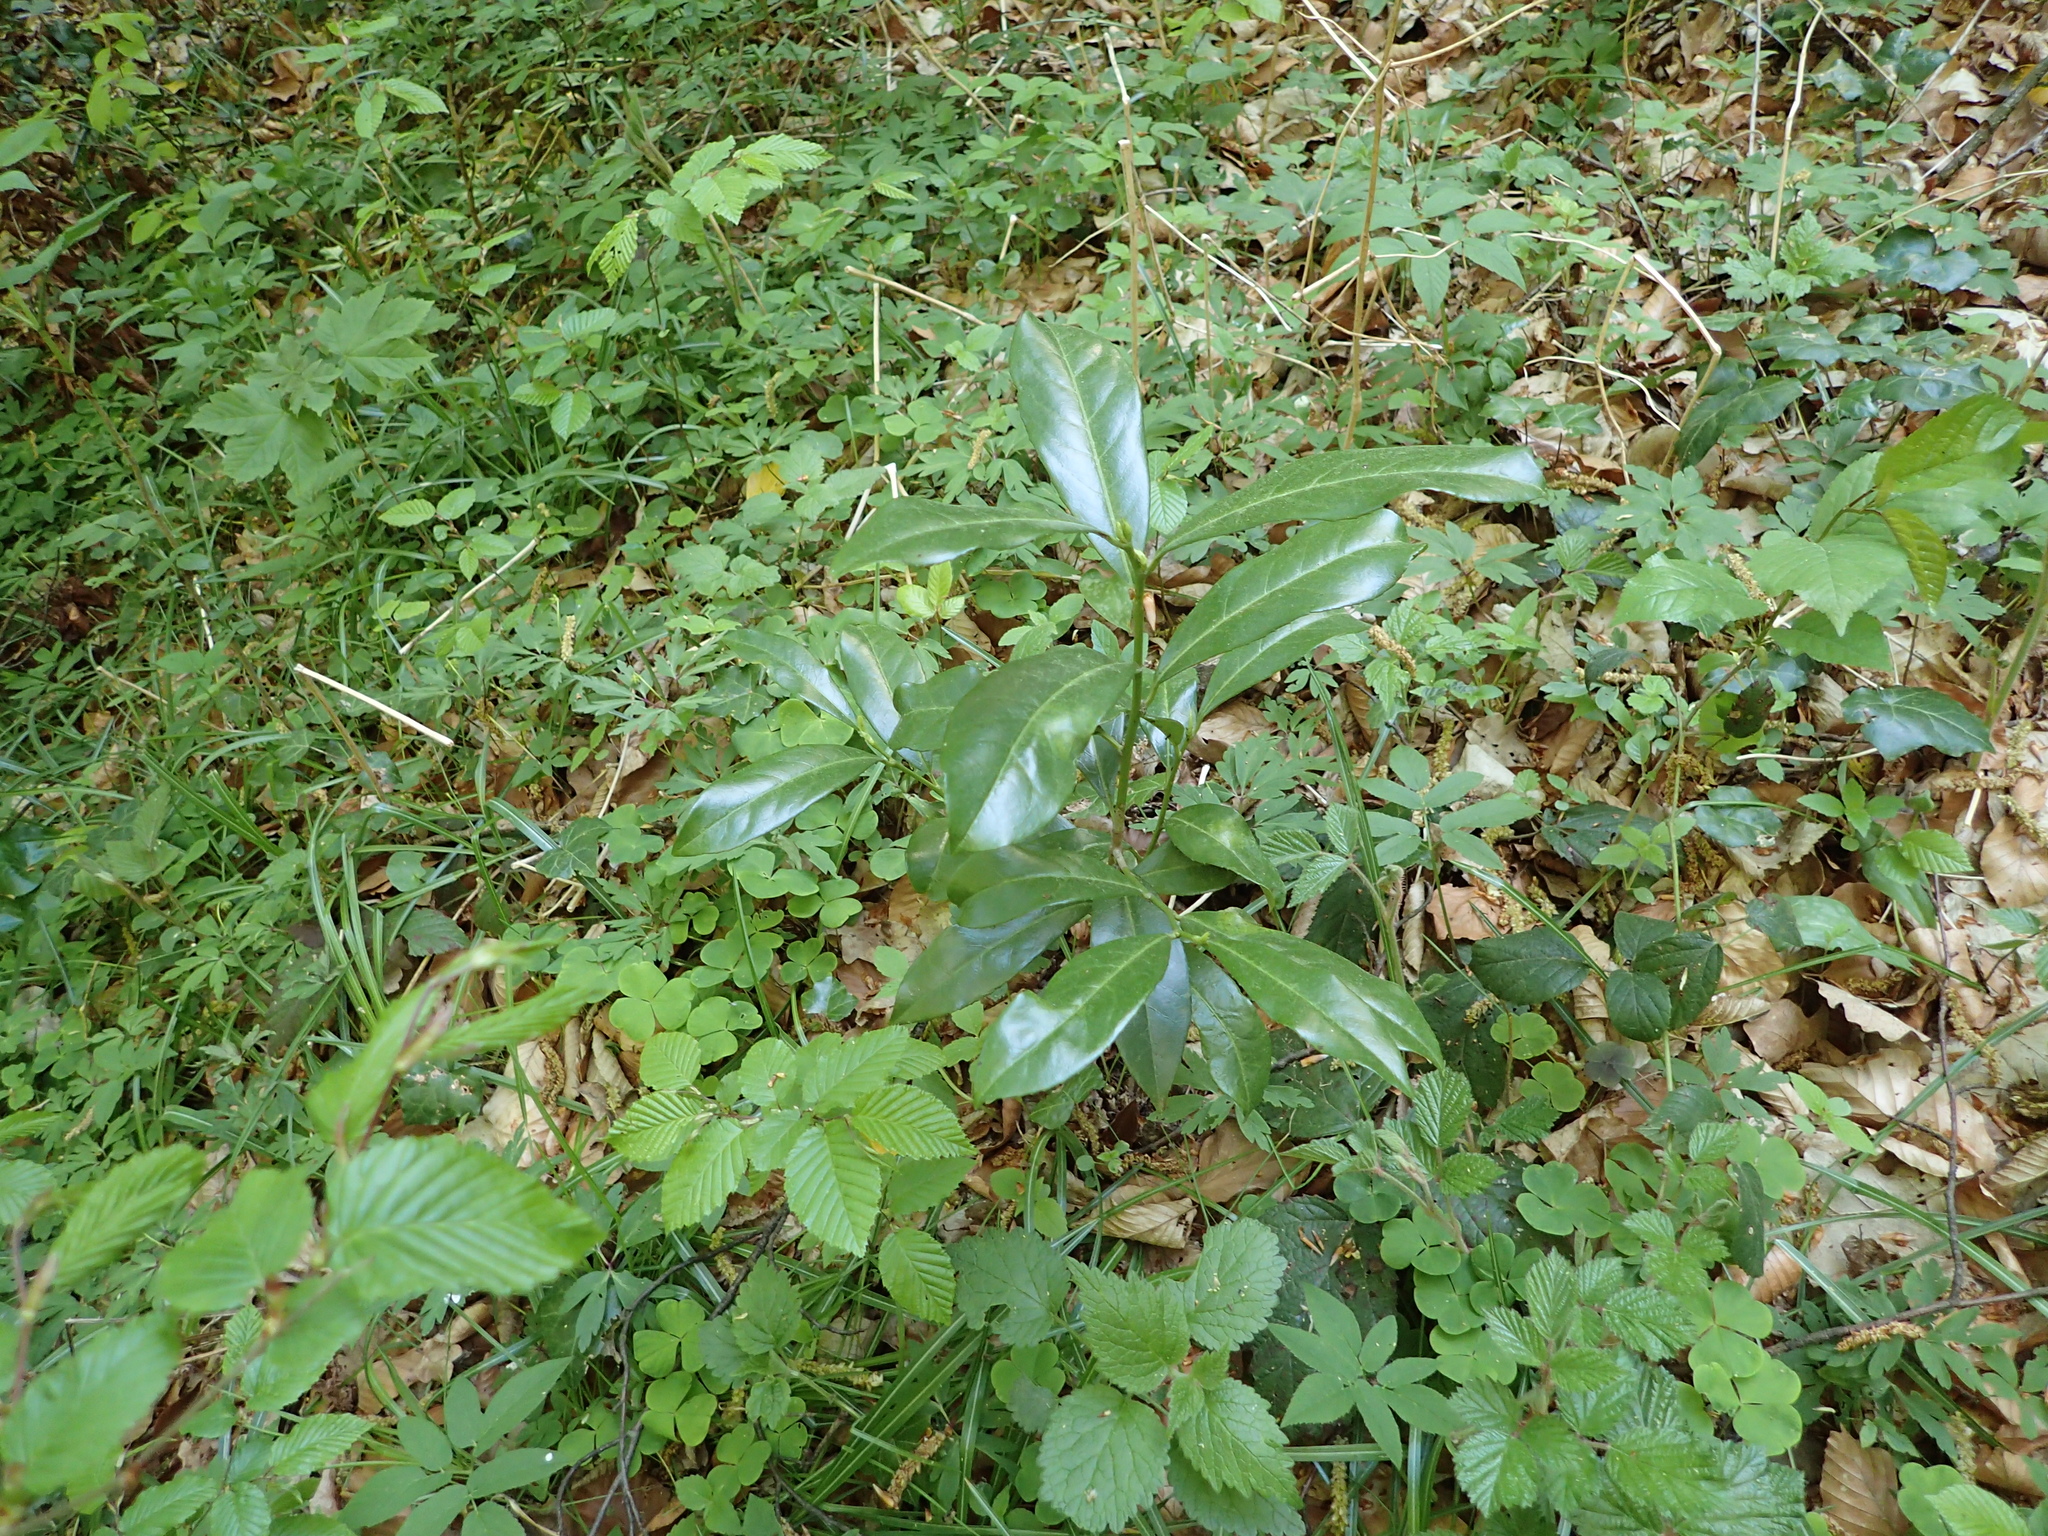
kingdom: Plantae
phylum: Tracheophyta
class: Magnoliopsida
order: Rosales
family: Rosaceae
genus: Prunus
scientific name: Prunus laurocerasus
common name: Cherry laurel
